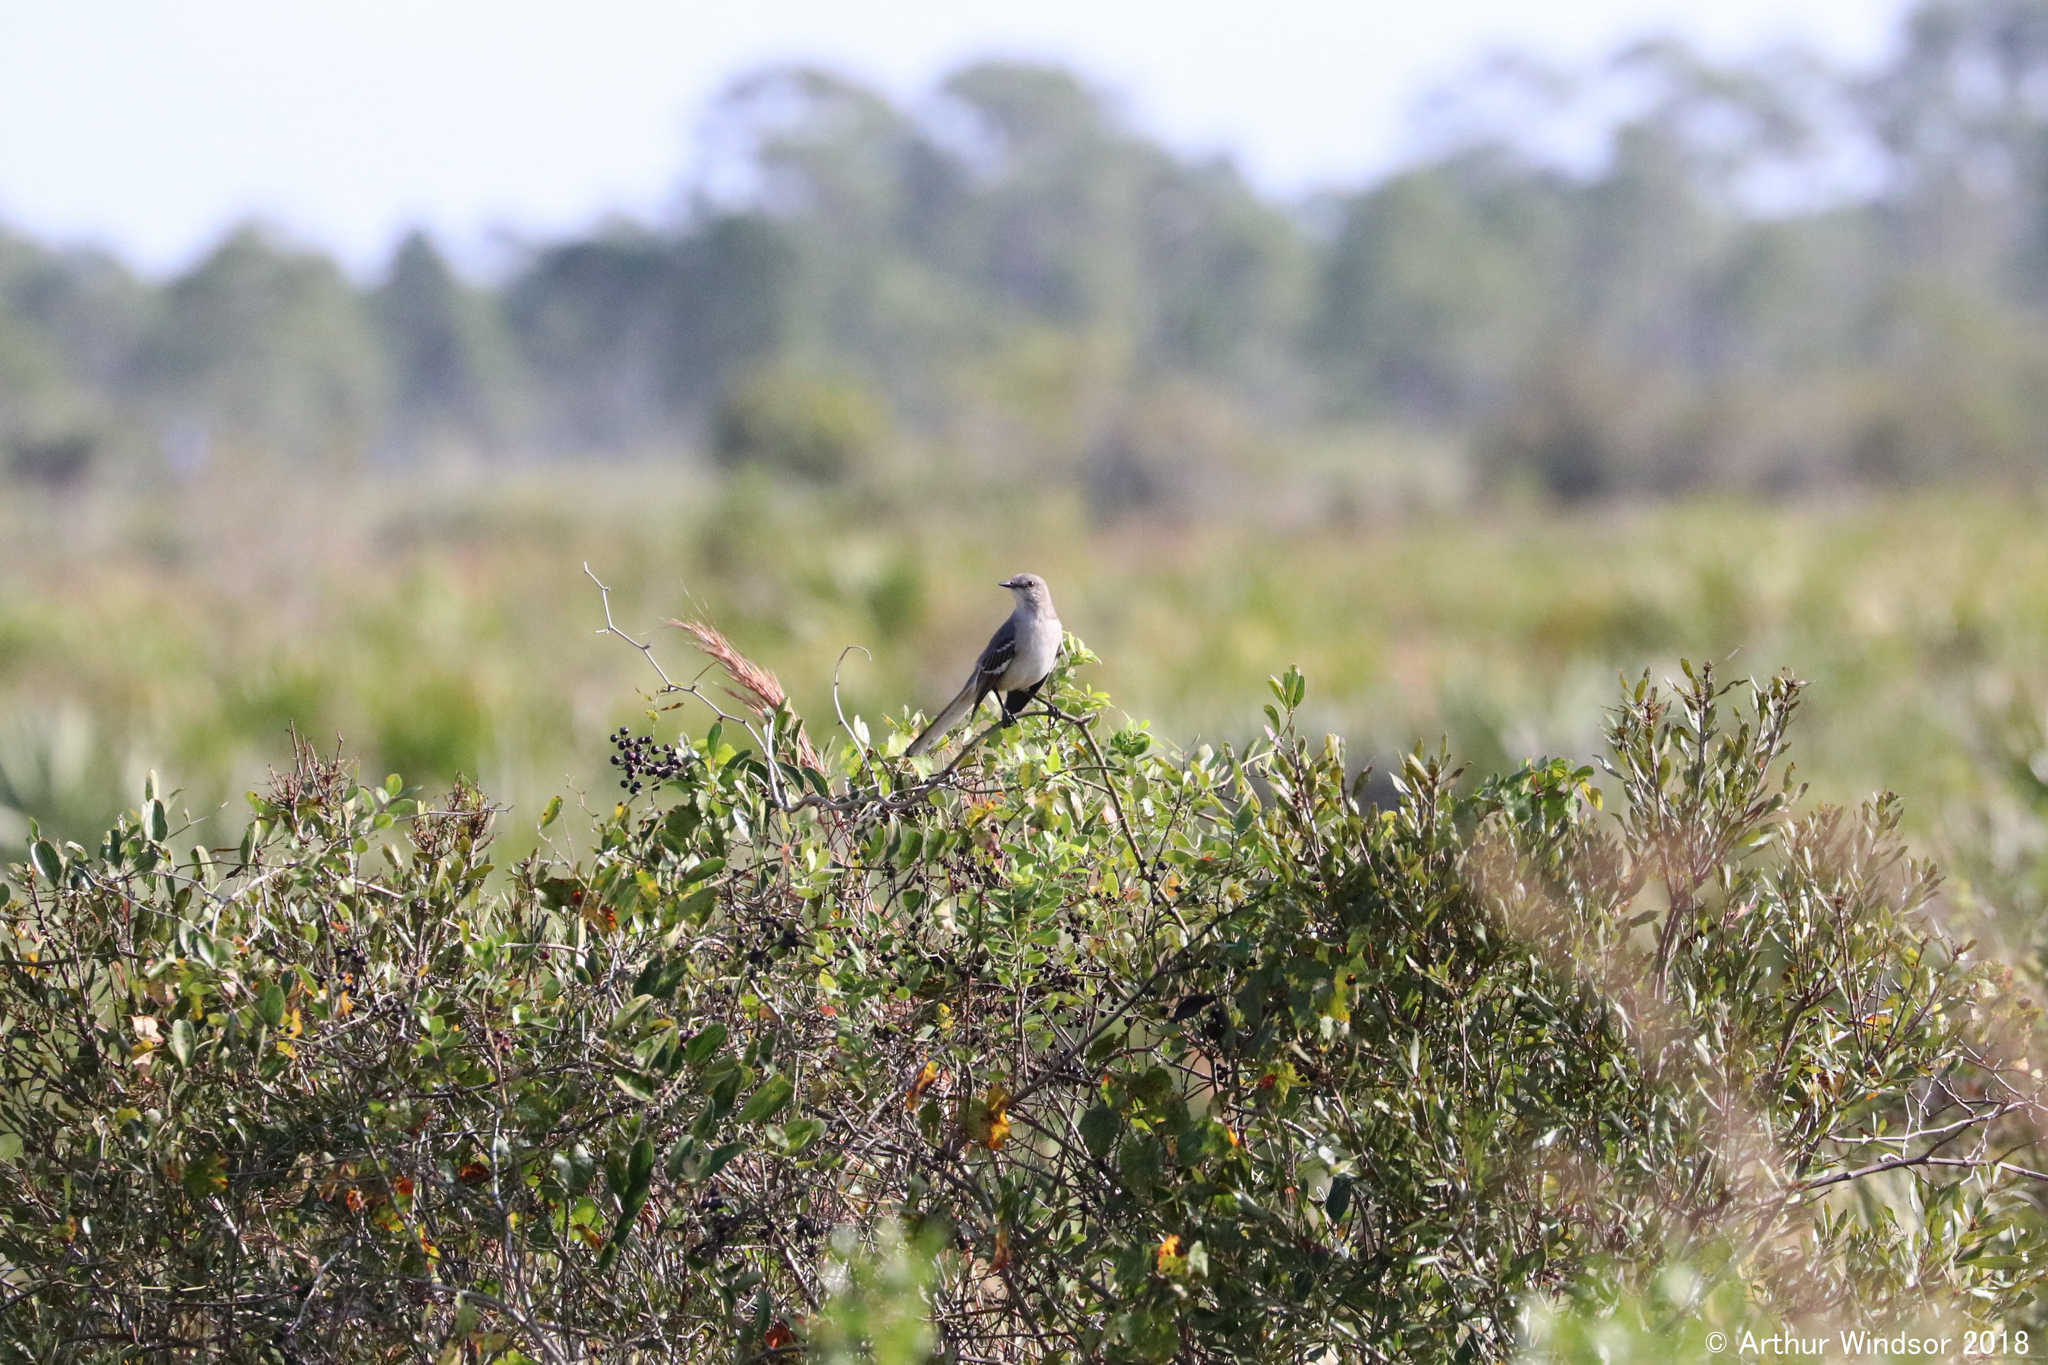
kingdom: Animalia
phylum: Chordata
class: Aves
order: Passeriformes
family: Mimidae
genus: Mimus
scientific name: Mimus polyglottos
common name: Northern mockingbird
